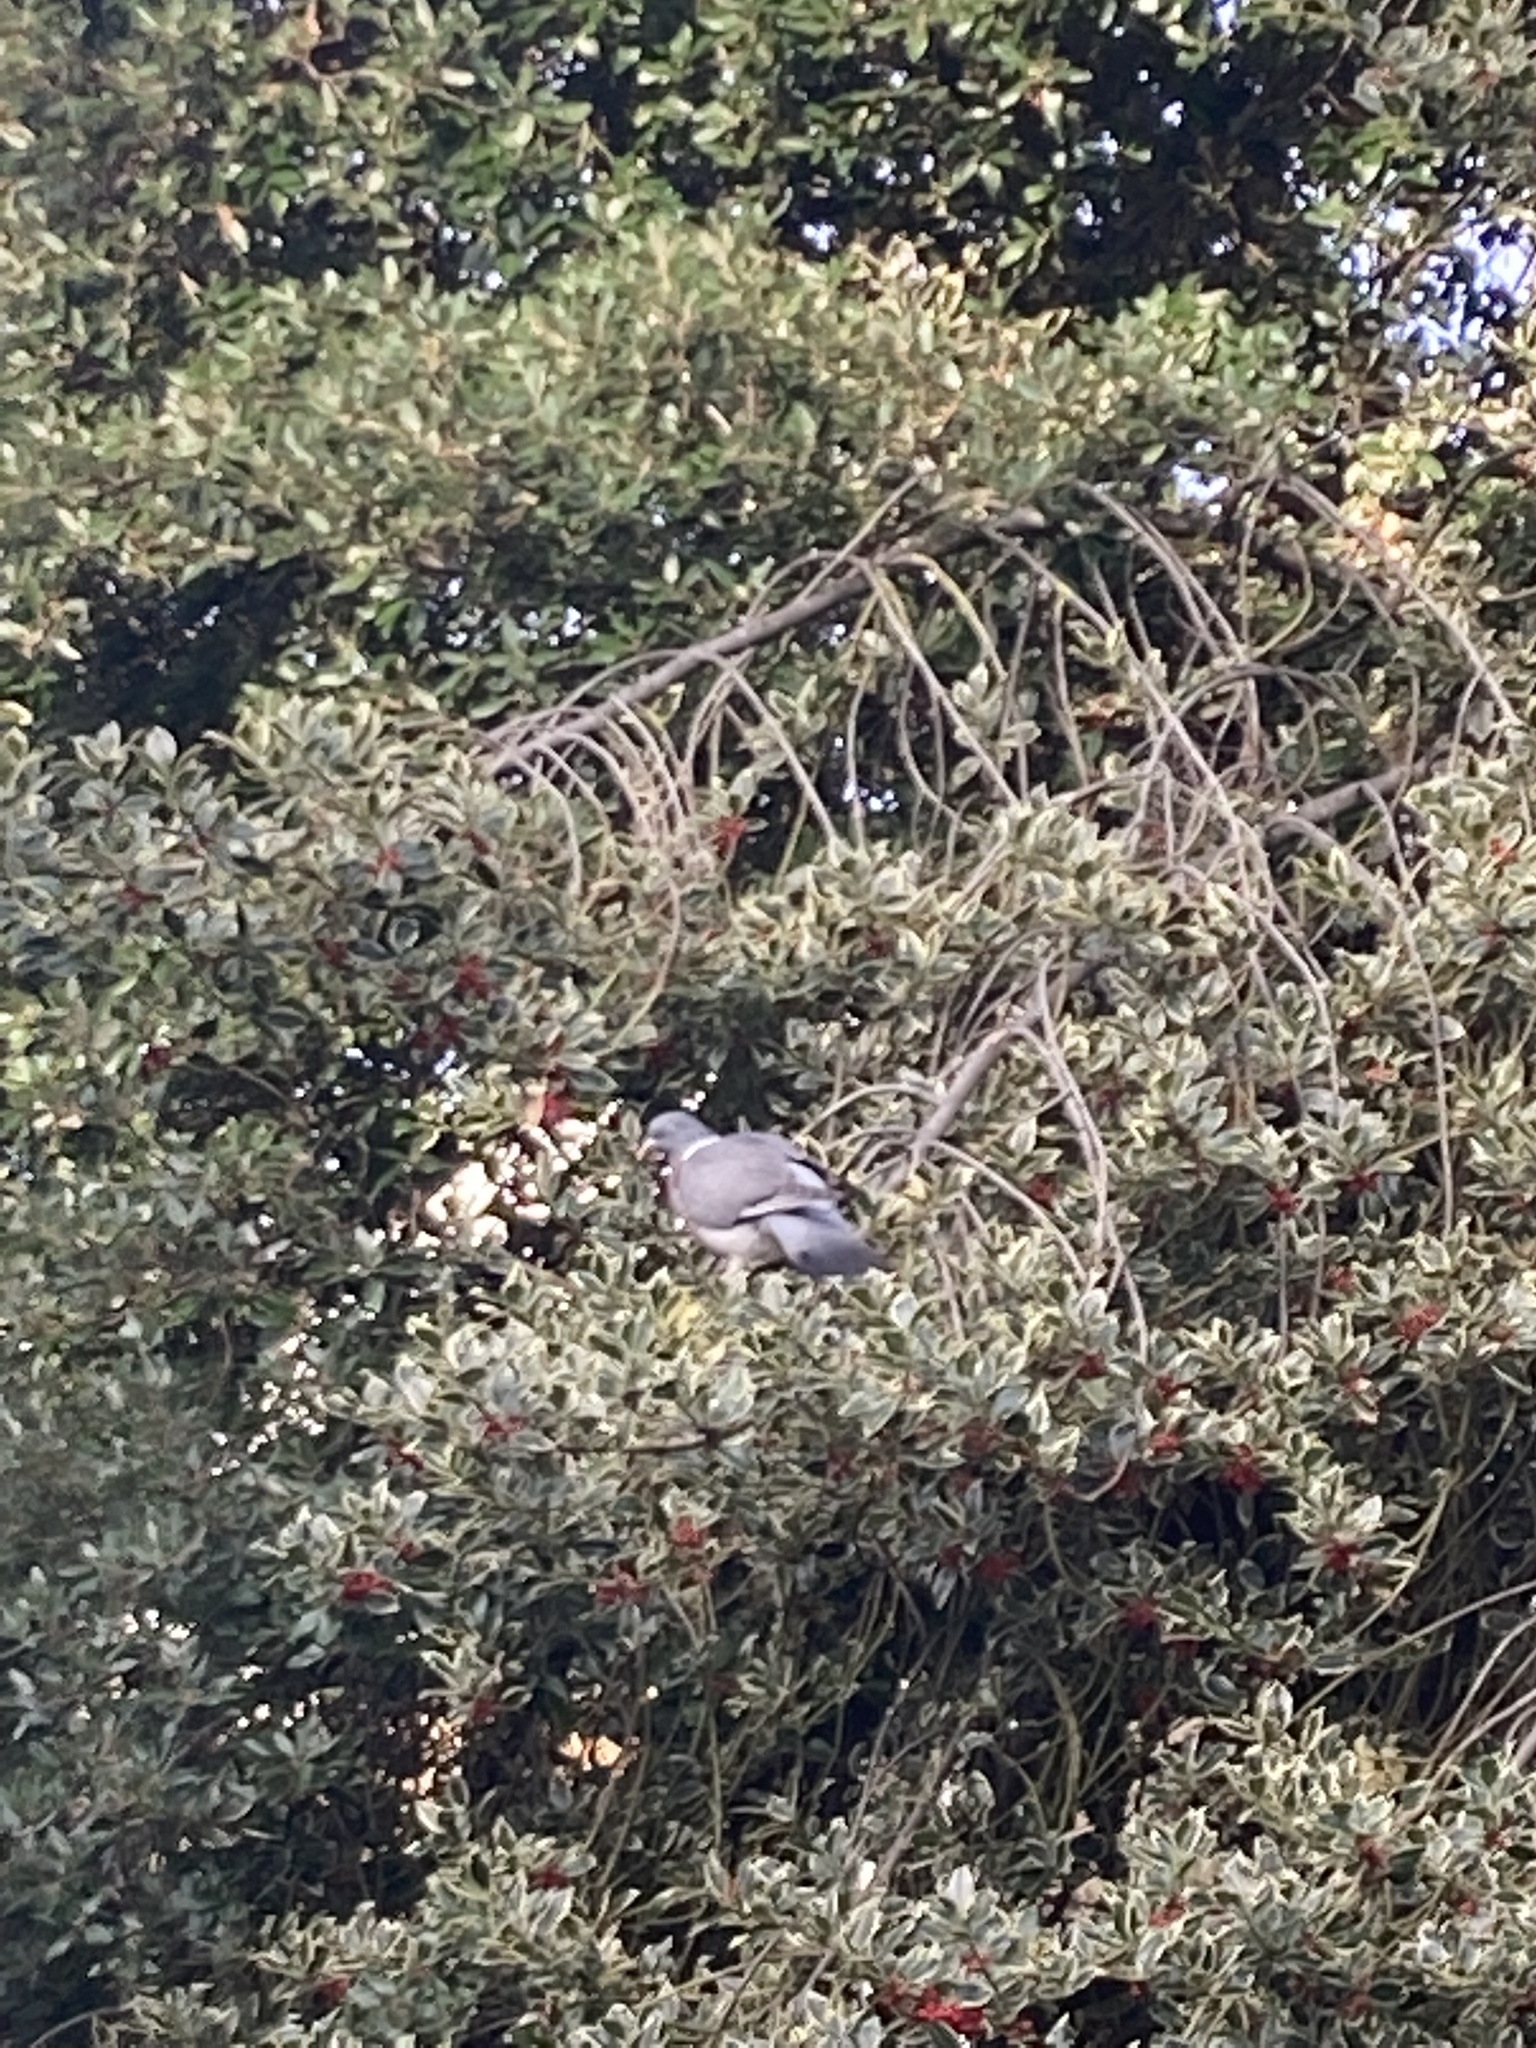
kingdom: Animalia
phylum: Chordata
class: Aves
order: Columbiformes
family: Columbidae
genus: Columba
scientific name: Columba palumbus
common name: Common wood pigeon
